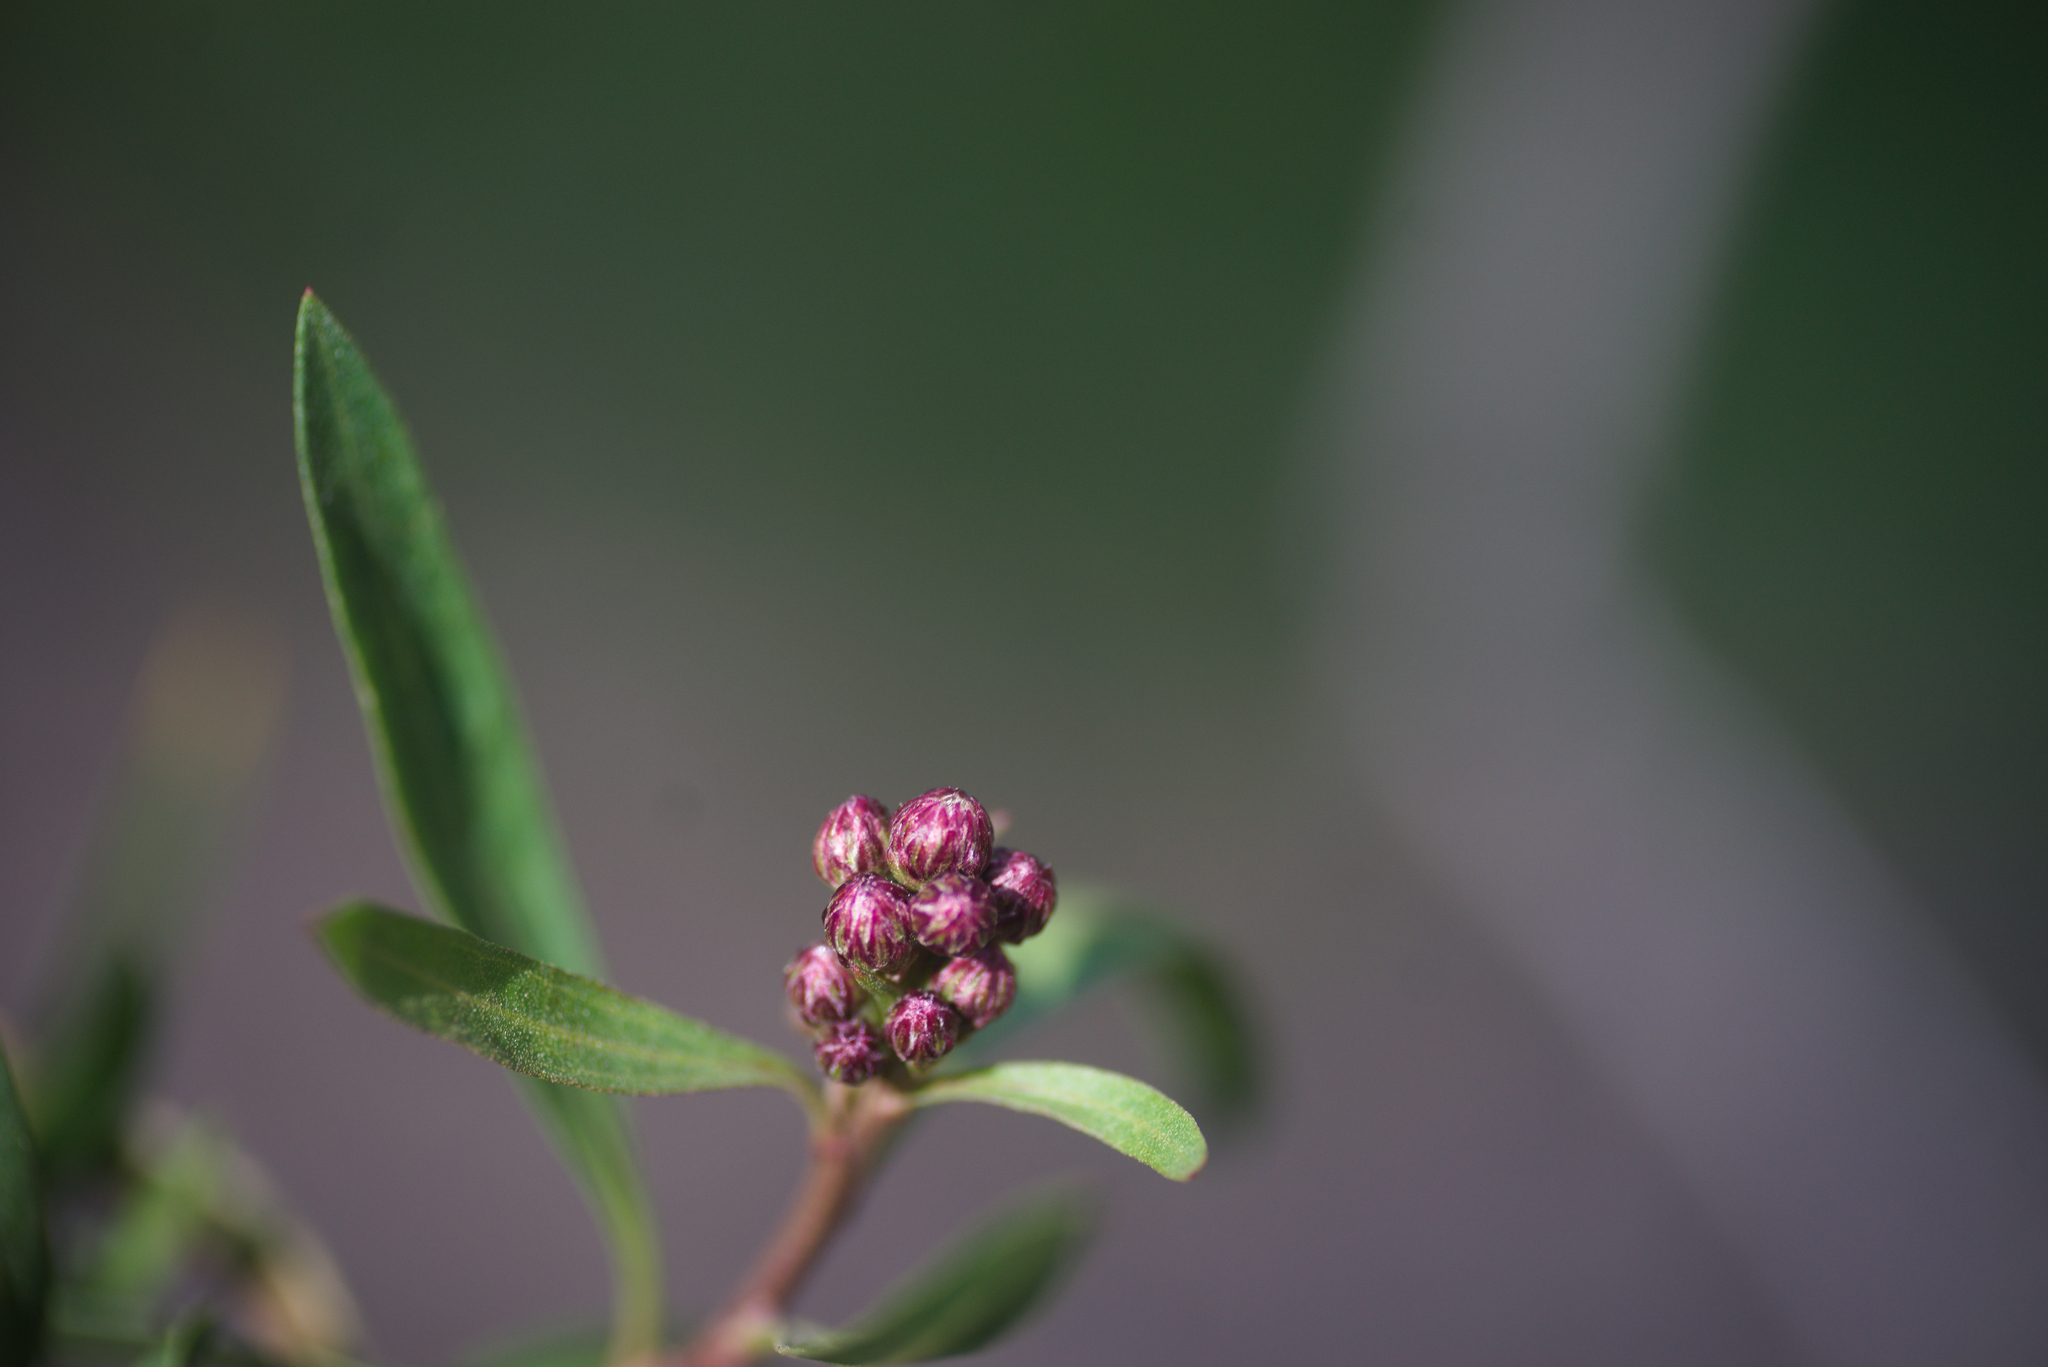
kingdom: Plantae
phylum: Tracheophyta
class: Magnoliopsida
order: Asterales
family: Asteraceae
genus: Baccharis
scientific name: Baccharis salicifolia
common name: Sticky baccharis
